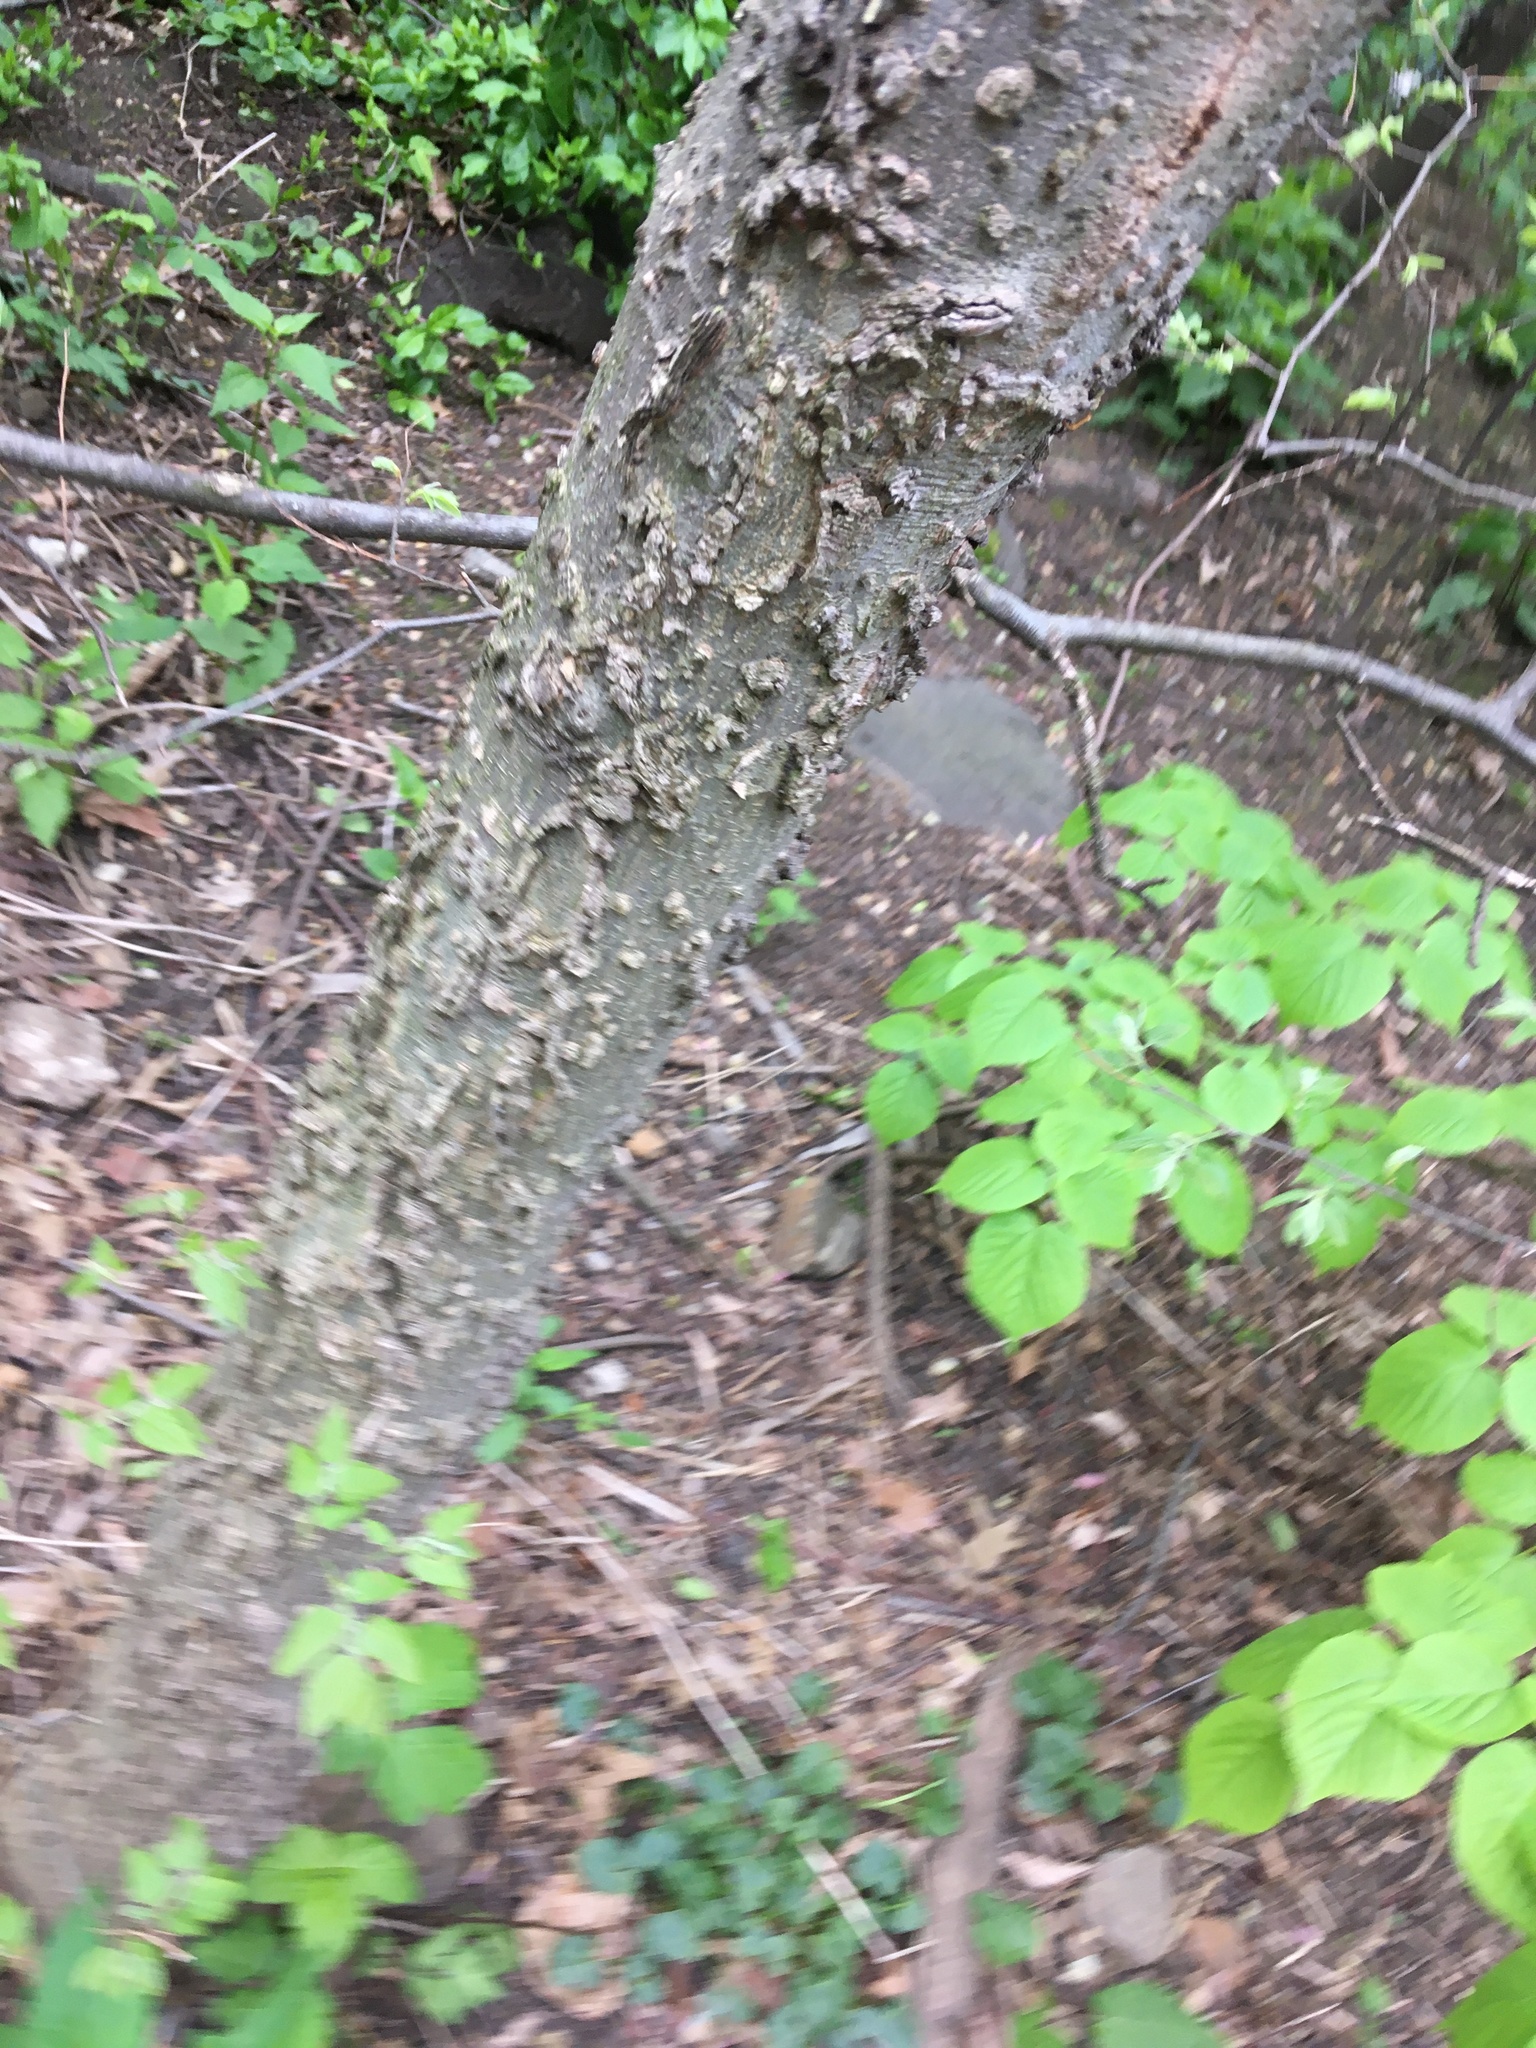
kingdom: Plantae
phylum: Tracheophyta
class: Magnoliopsida
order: Rosales
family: Cannabaceae
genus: Celtis
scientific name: Celtis occidentalis
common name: Common hackberry
